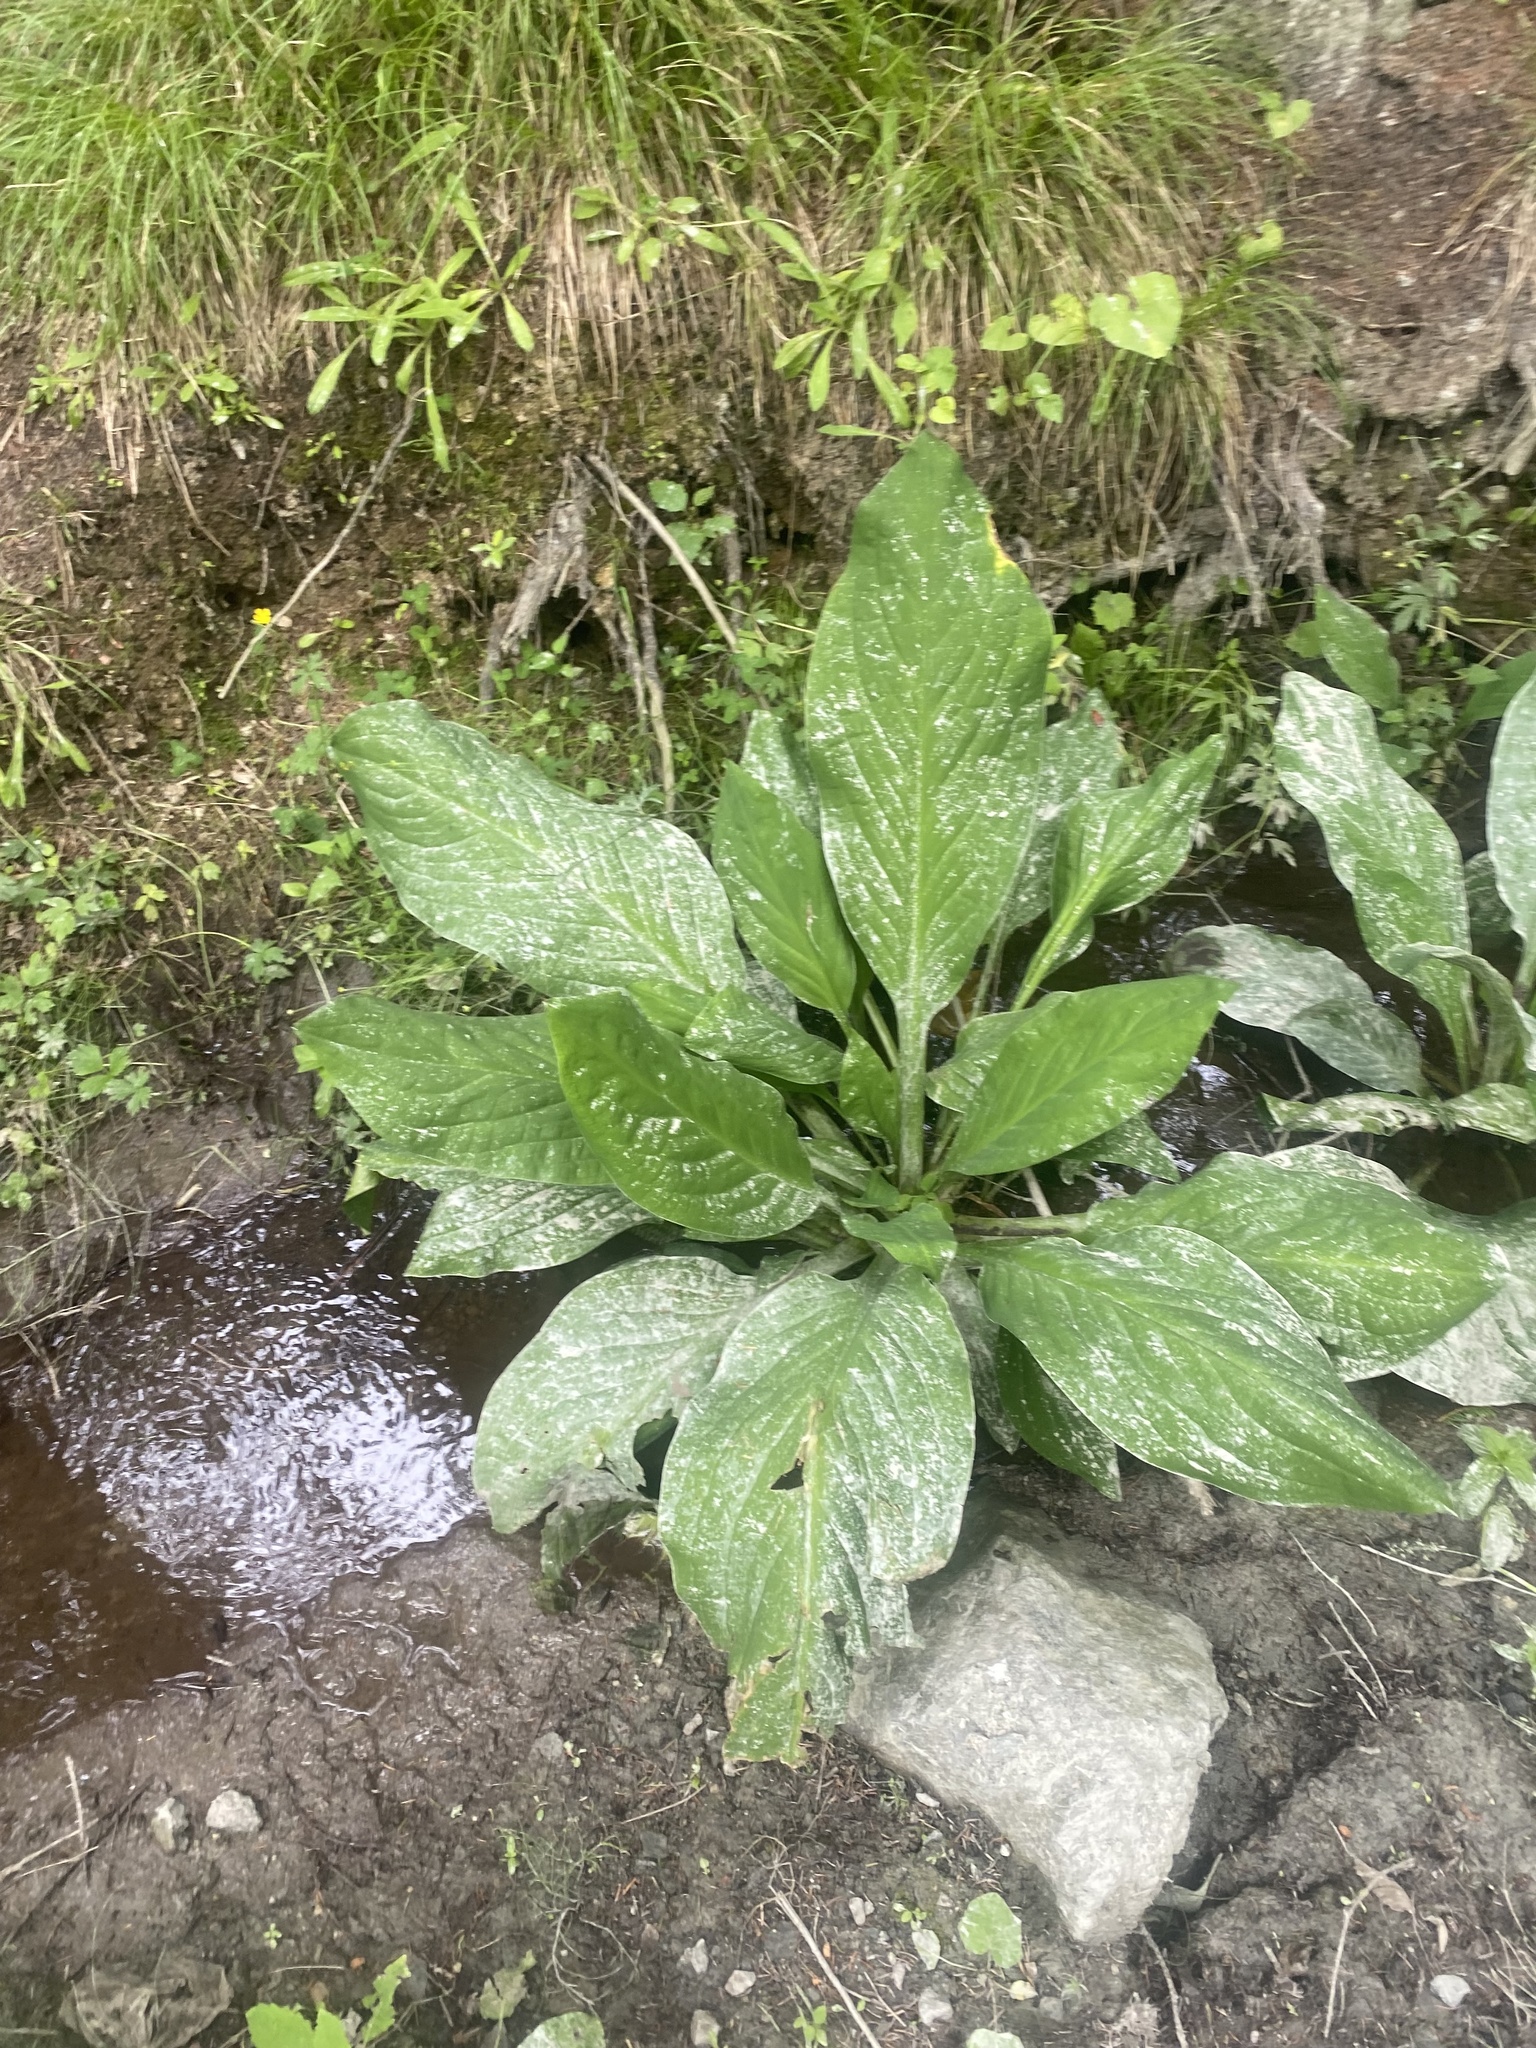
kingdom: Plantae
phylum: Tracheophyta
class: Liliopsida
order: Alismatales
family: Araceae
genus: Lysichiton
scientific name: Lysichiton camtschatcensis
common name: Asian skunk-cabbage
